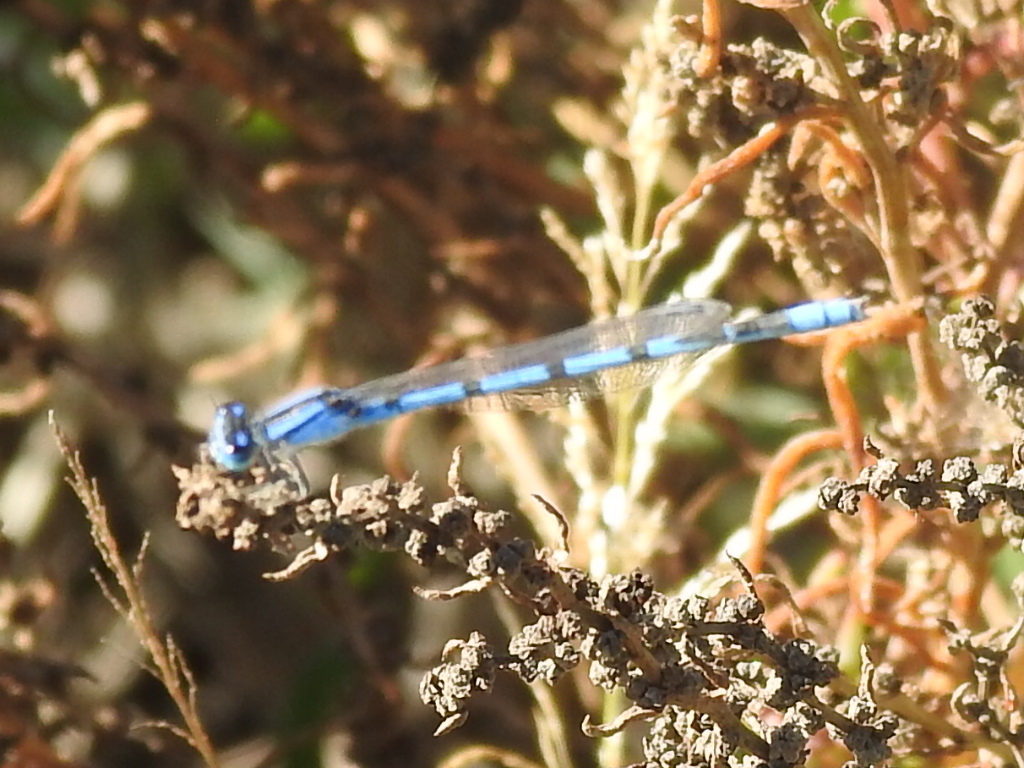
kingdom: Animalia
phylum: Arthropoda
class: Insecta
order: Odonata
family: Coenagrionidae
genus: Enallagma
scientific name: Enallagma civile
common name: Damselfly
